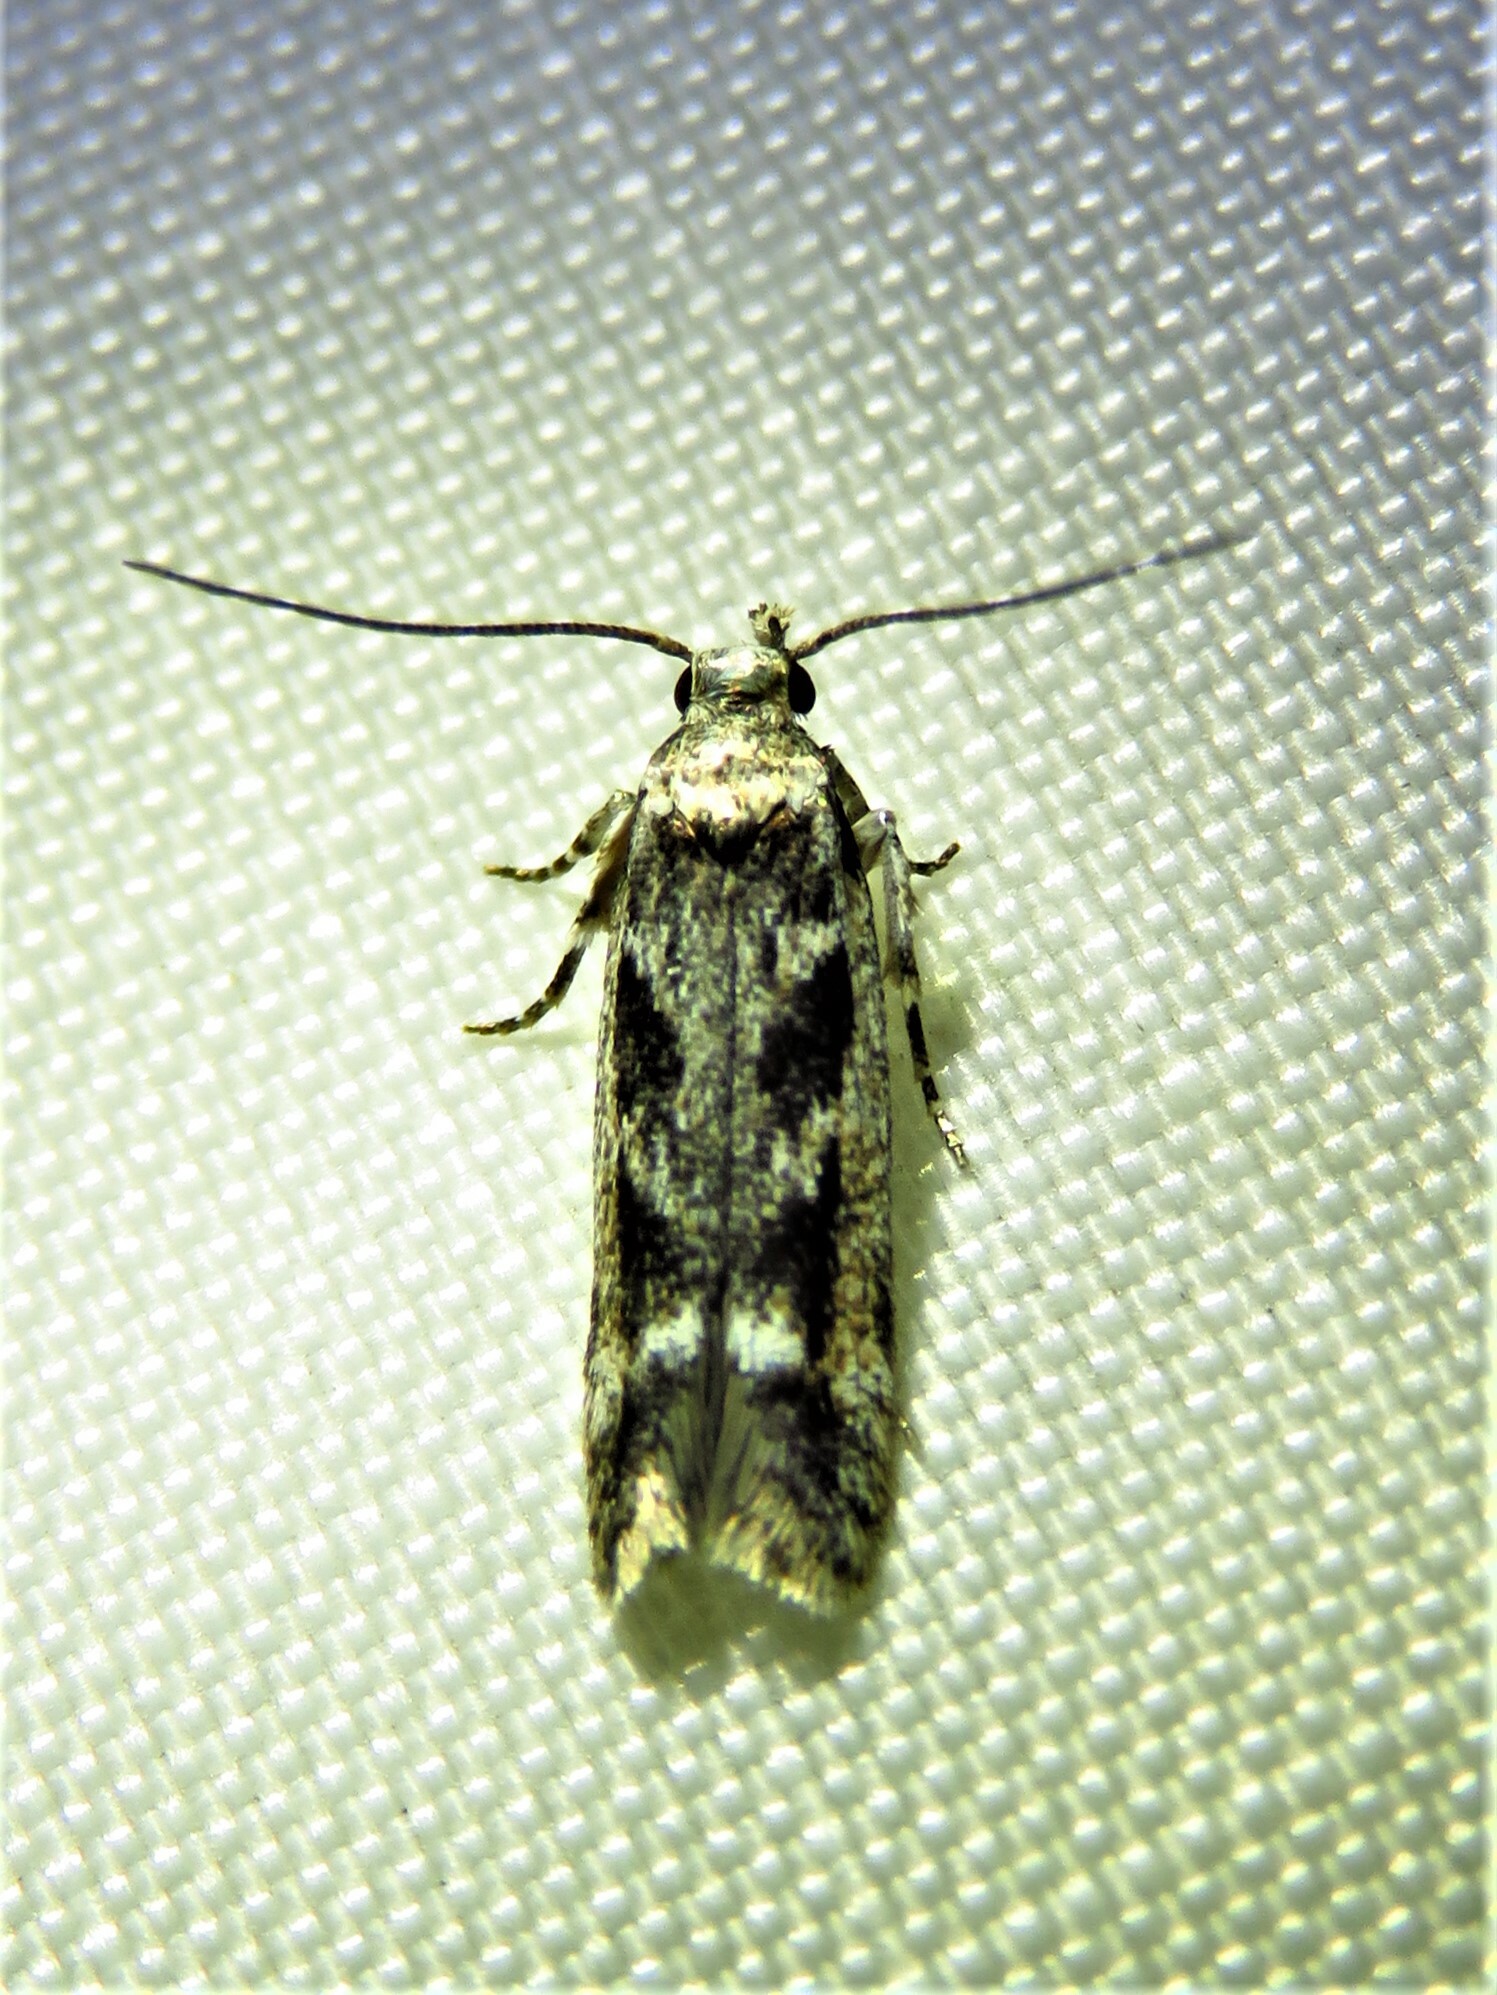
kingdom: Animalia
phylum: Arthropoda
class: Insecta
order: Lepidoptera
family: Gelechiidae
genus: Caryocolum
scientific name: Caryocolum fischerella
